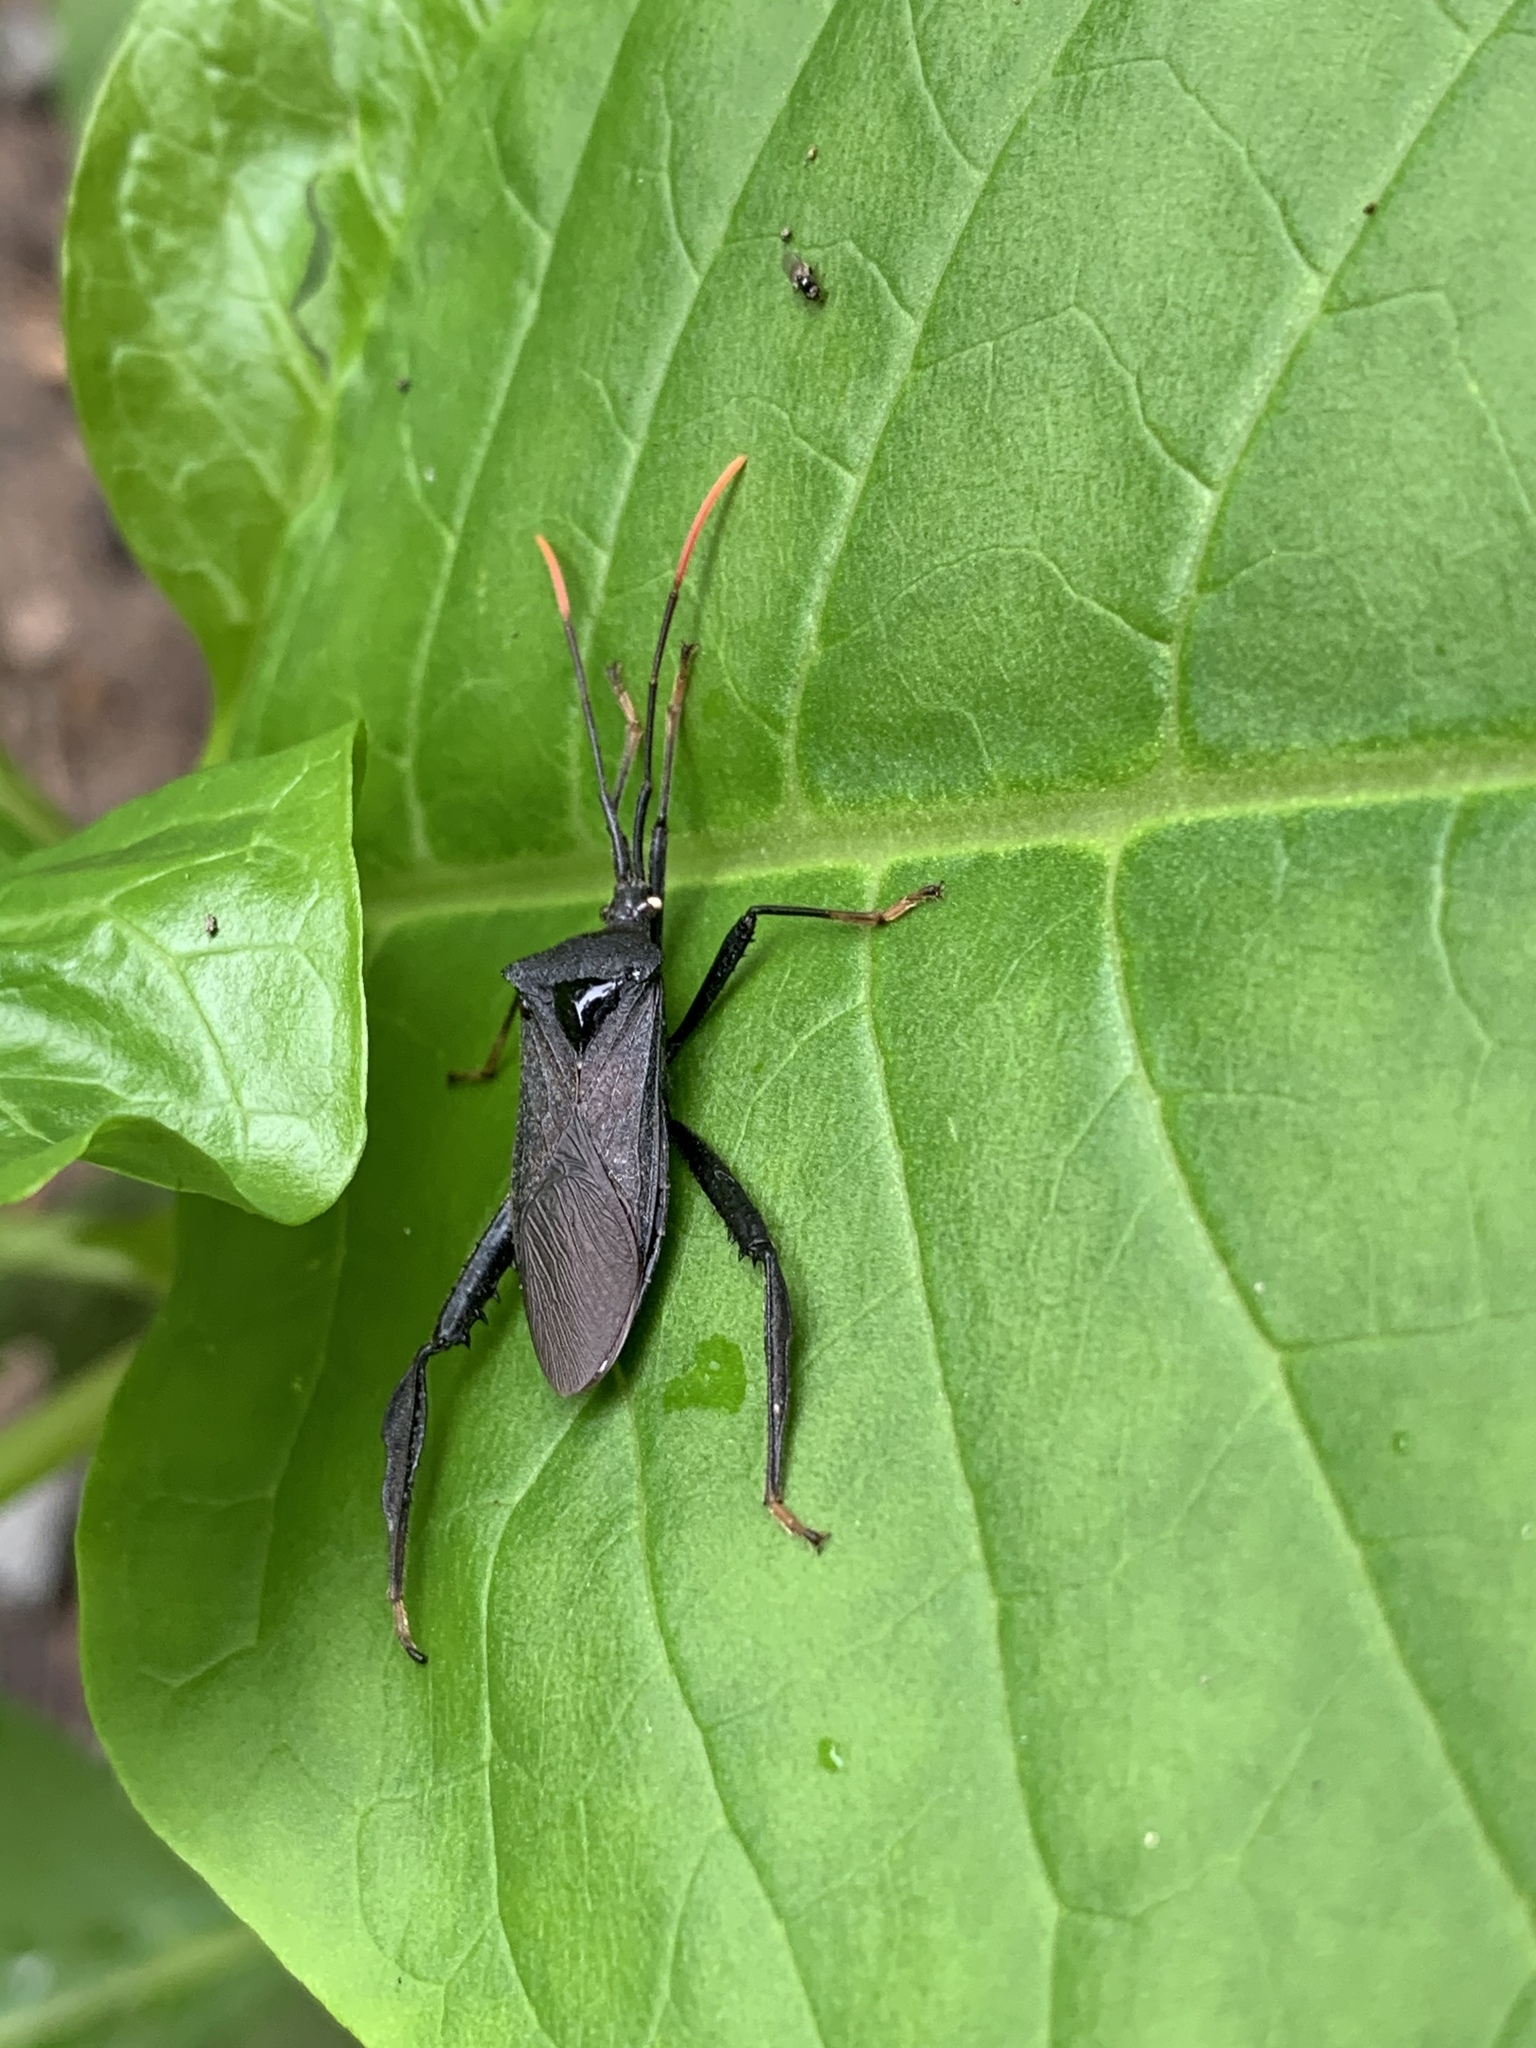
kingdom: Animalia
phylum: Arthropoda
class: Insecta
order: Hemiptera
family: Coreidae
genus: Acanthocephala
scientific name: Acanthocephala terminalis
